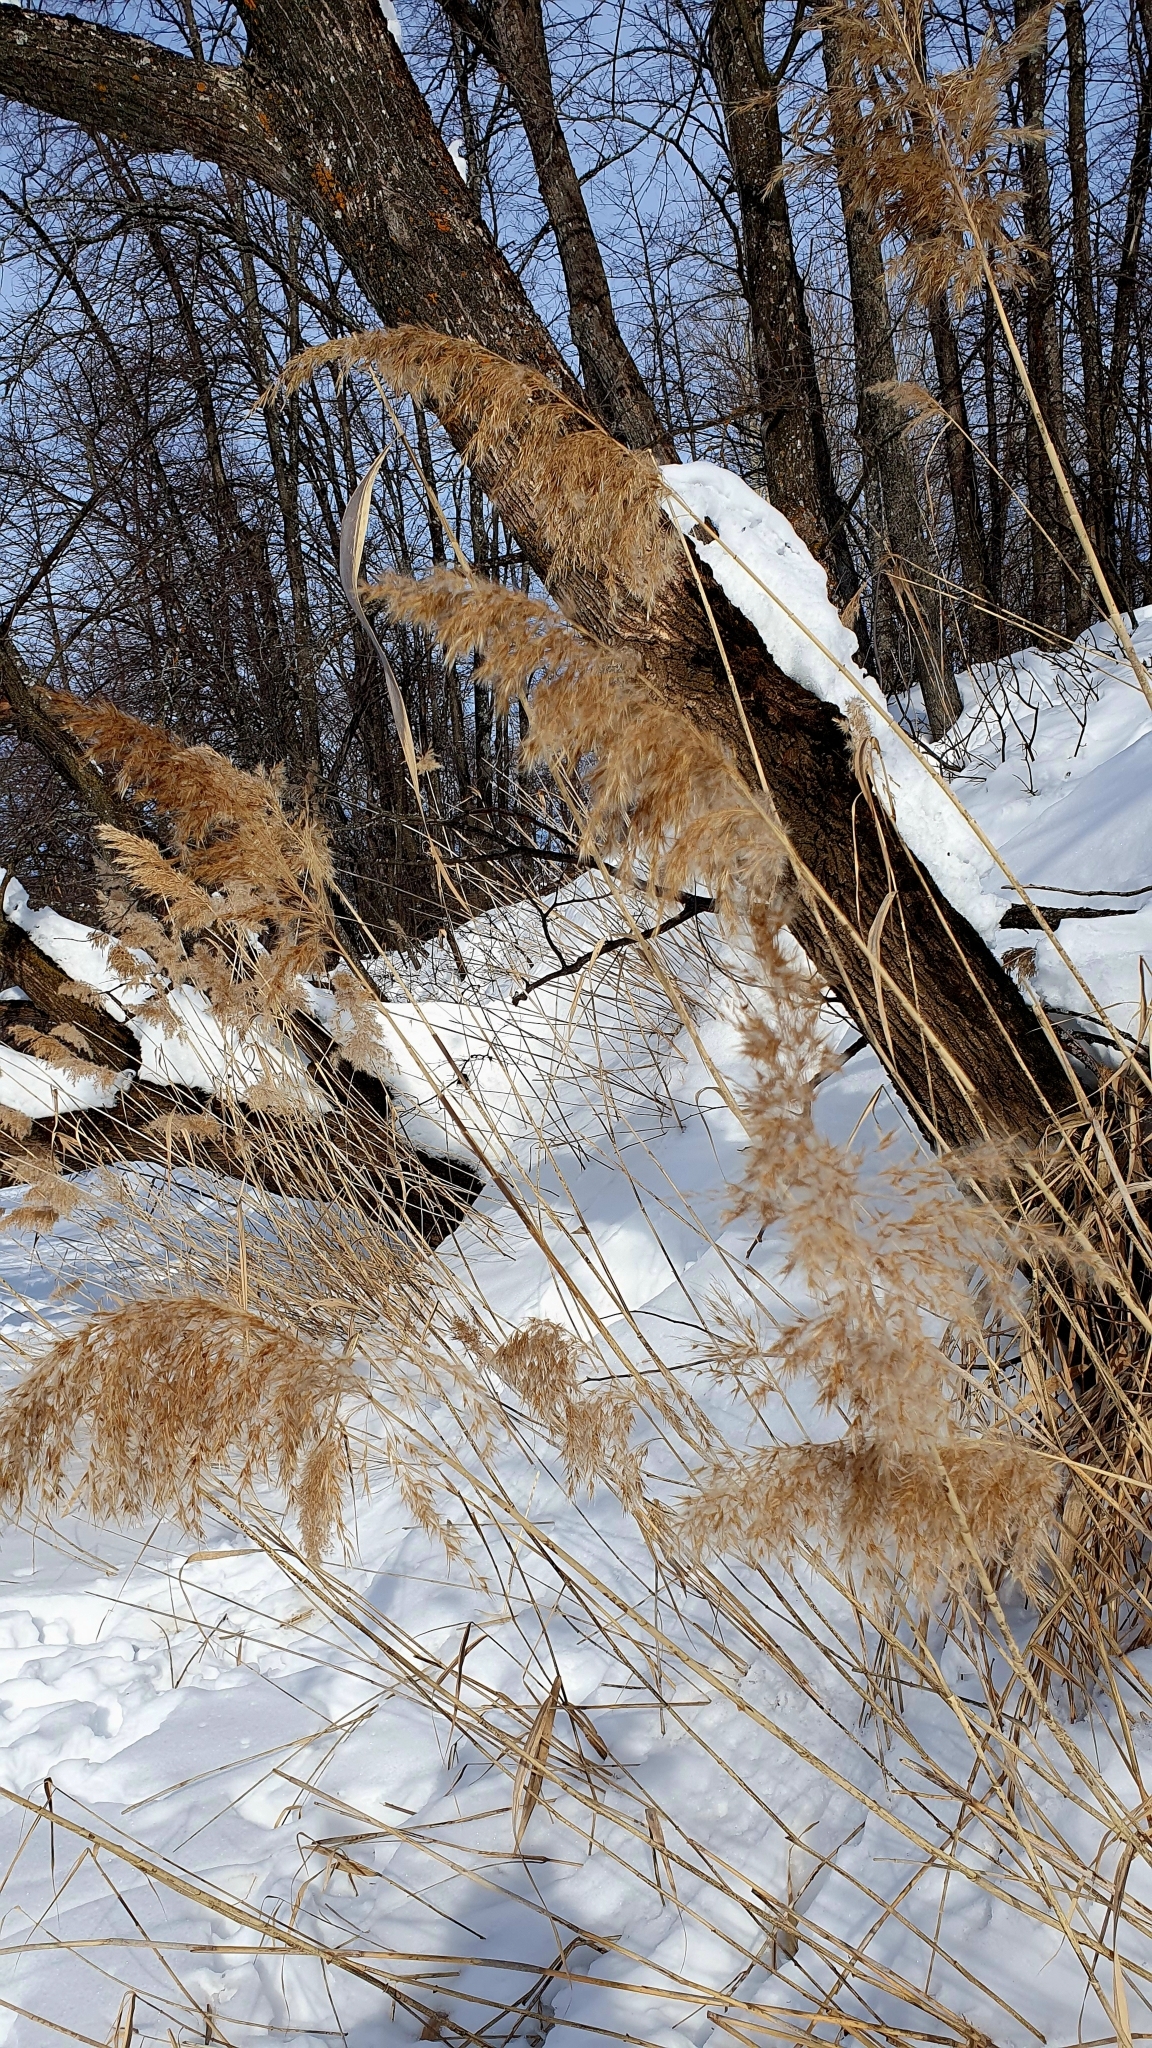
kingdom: Plantae
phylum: Tracheophyta
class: Liliopsida
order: Poales
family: Poaceae
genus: Phragmites
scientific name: Phragmites australis
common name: Common reed
